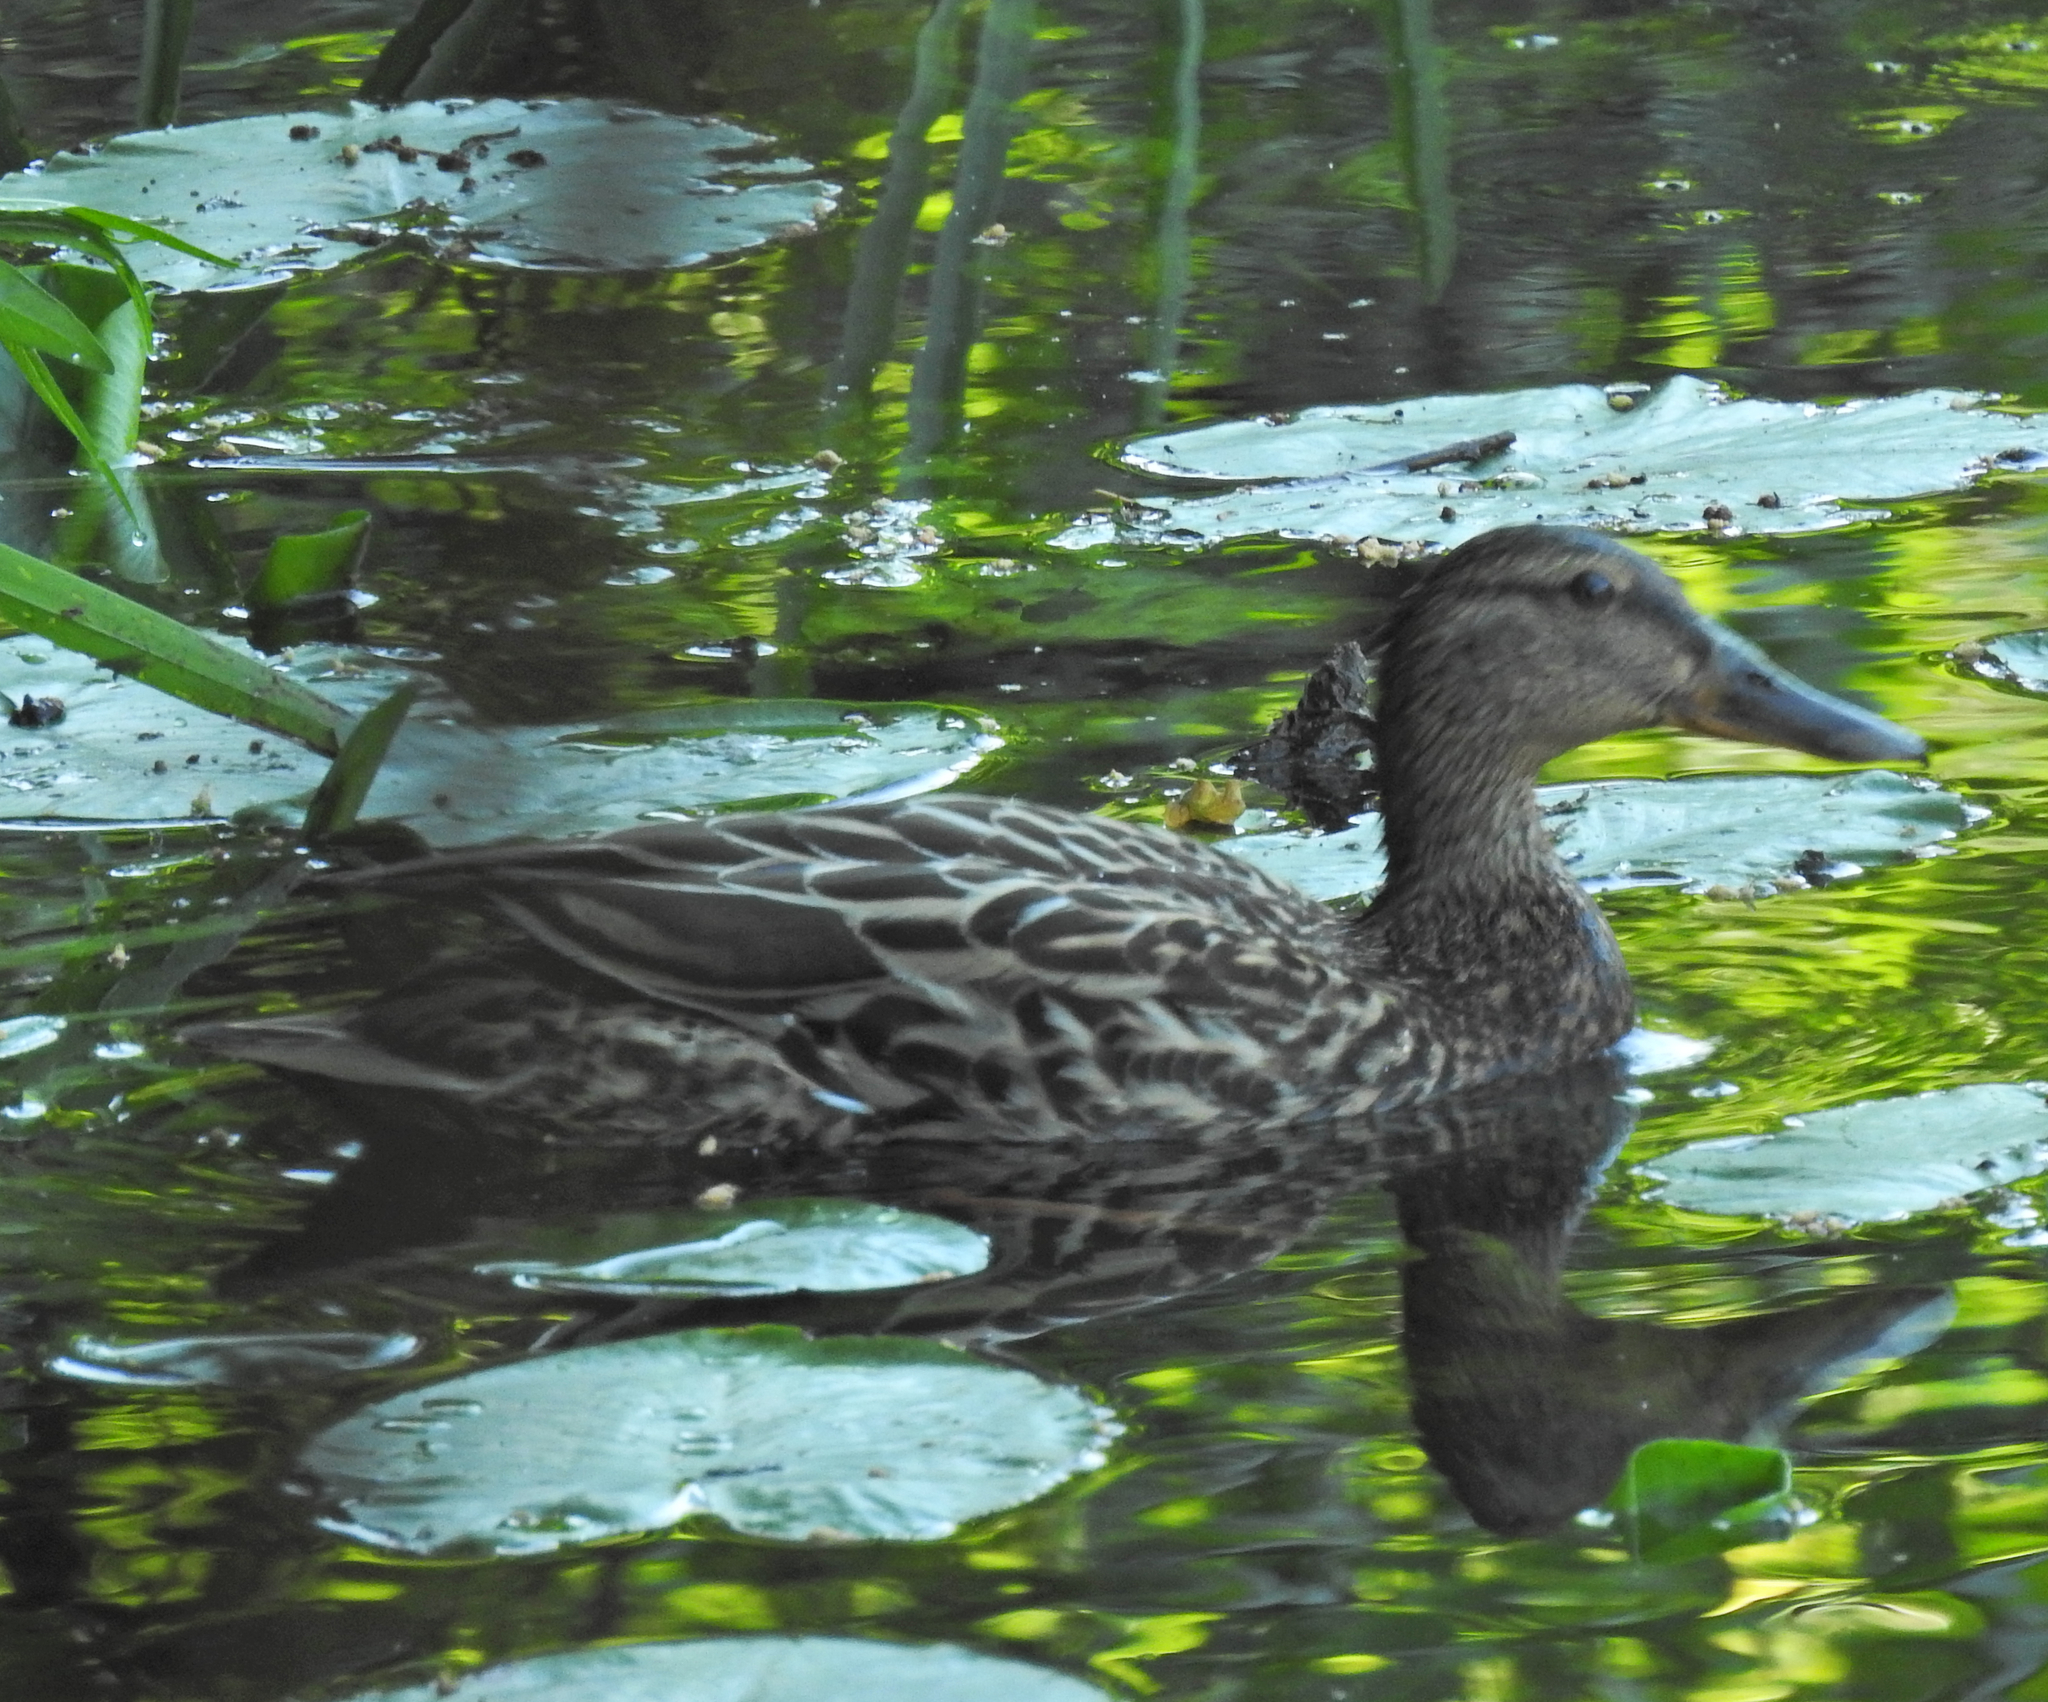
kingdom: Animalia
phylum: Chordata
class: Aves
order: Anseriformes
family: Anatidae
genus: Anas
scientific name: Anas platyrhynchos
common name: Mallard
